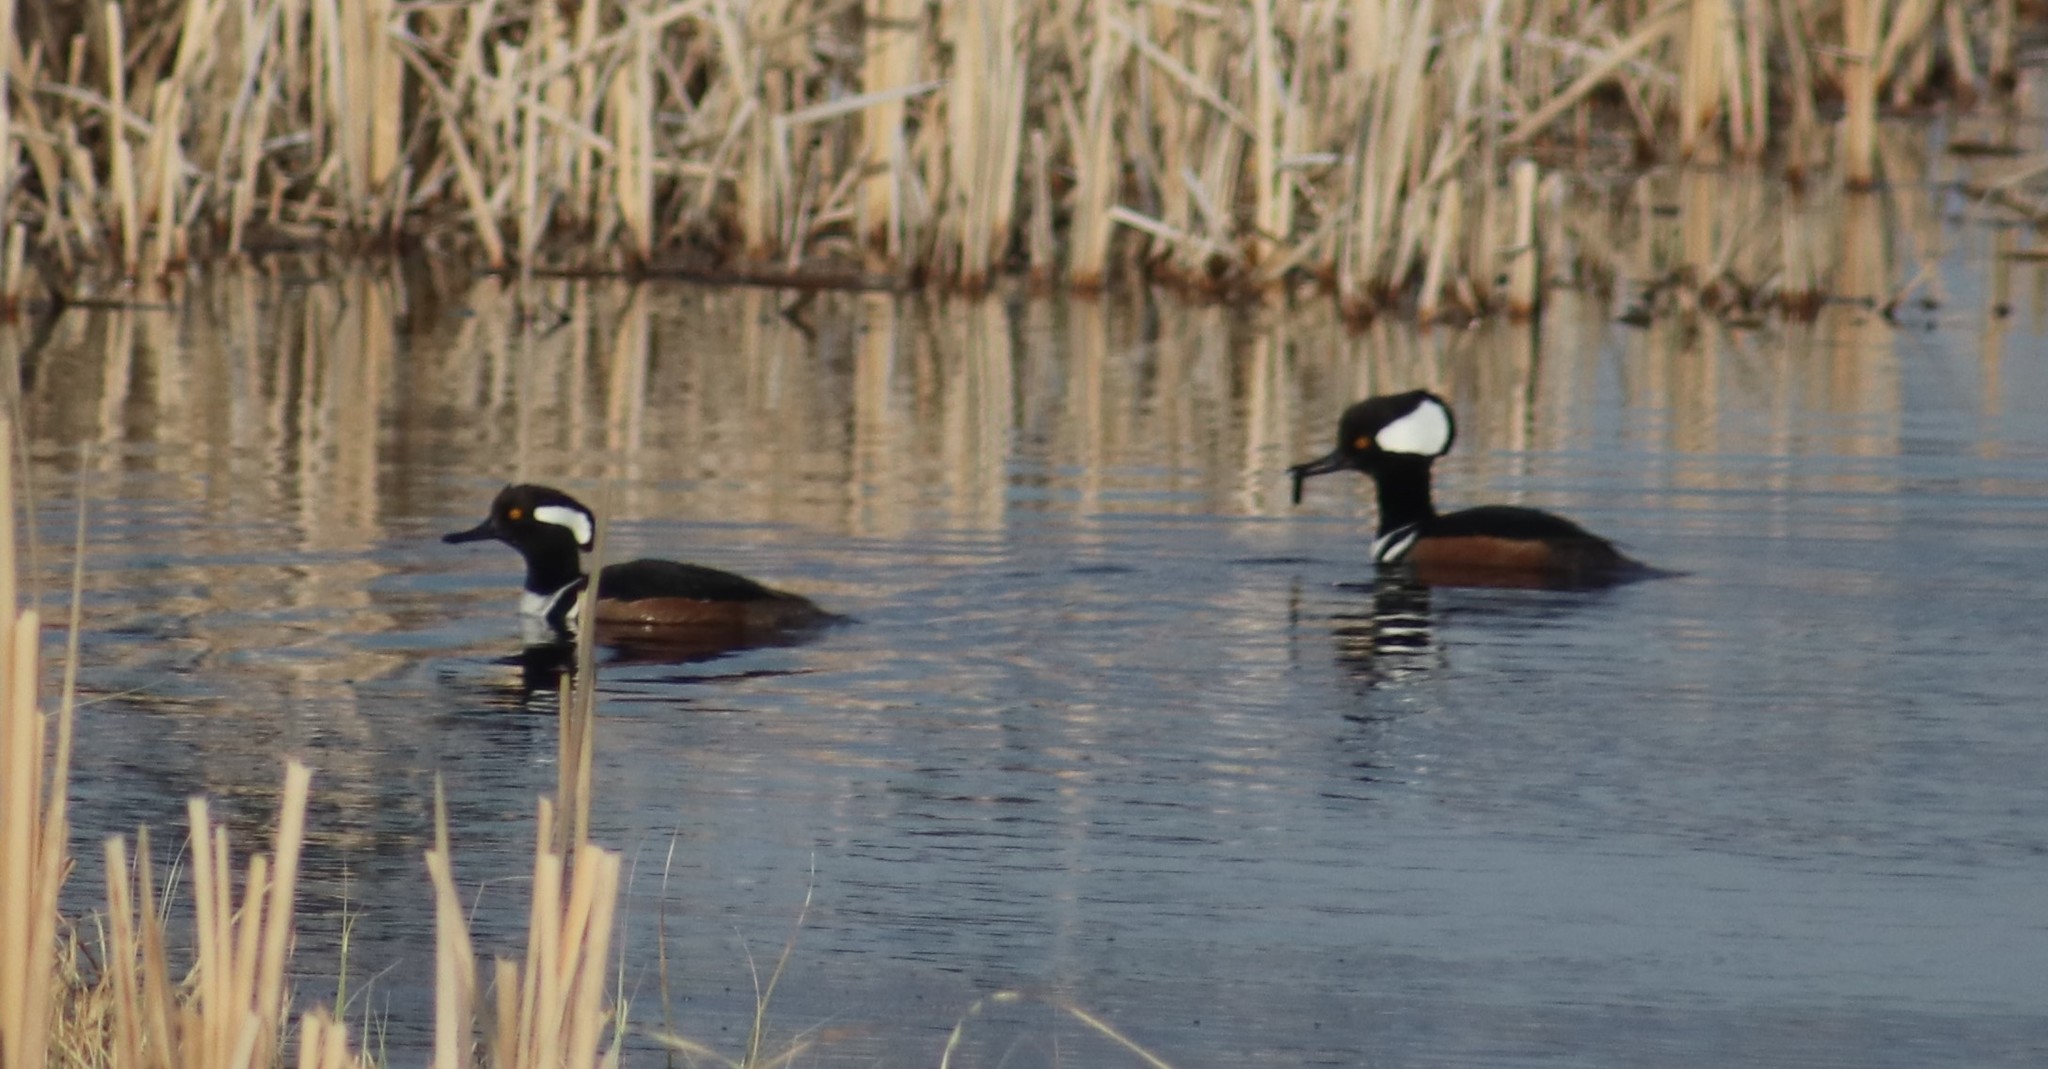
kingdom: Animalia
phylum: Chordata
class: Aves
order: Anseriformes
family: Anatidae
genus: Lophodytes
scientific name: Lophodytes cucullatus
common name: Hooded merganser
